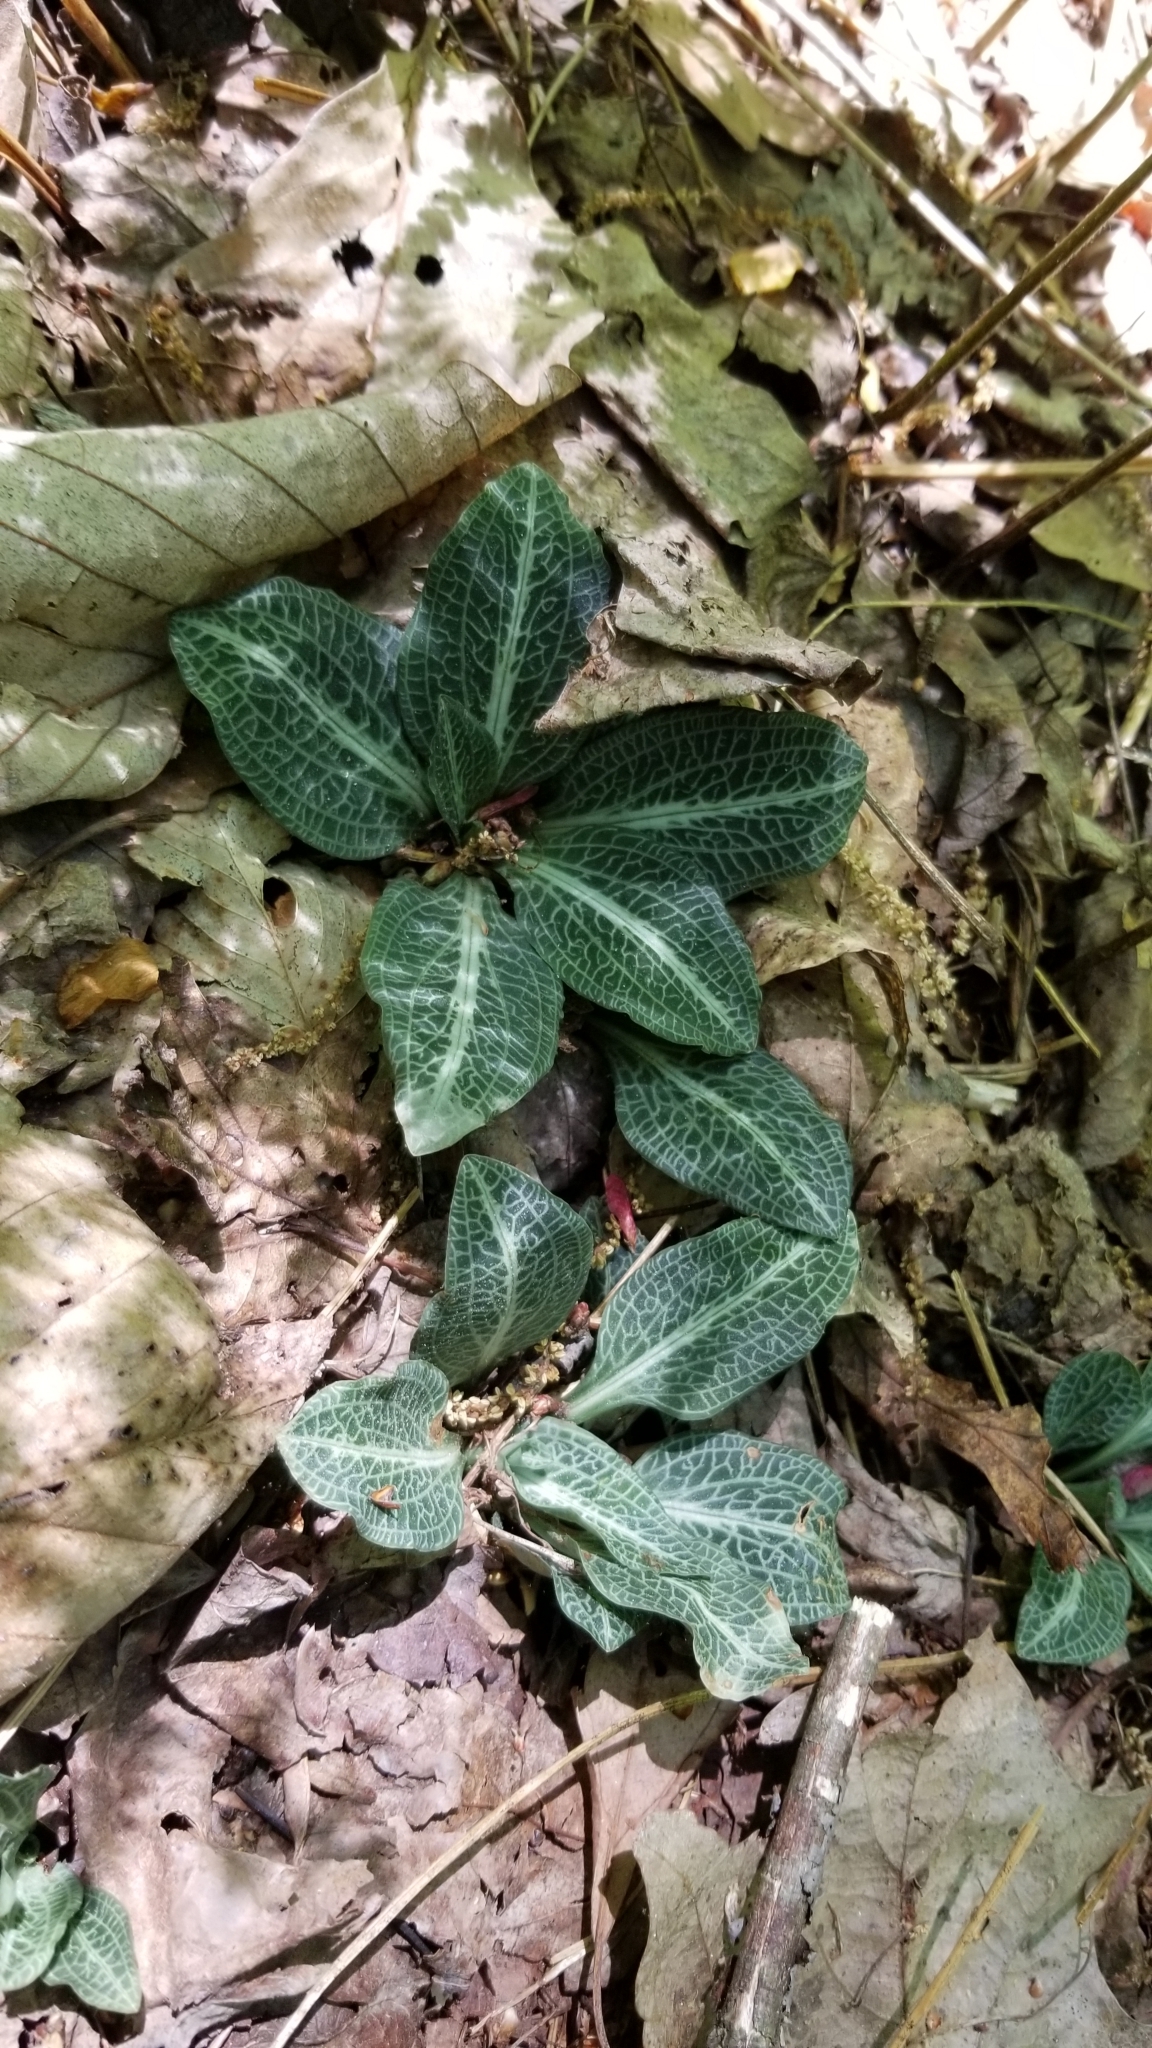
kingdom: Plantae
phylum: Tracheophyta
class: Liliopsida
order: Asparagales
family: Orchidaceae
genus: Goodyera
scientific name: Goodyera pubescens
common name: Downy rattlesnake-plantain
